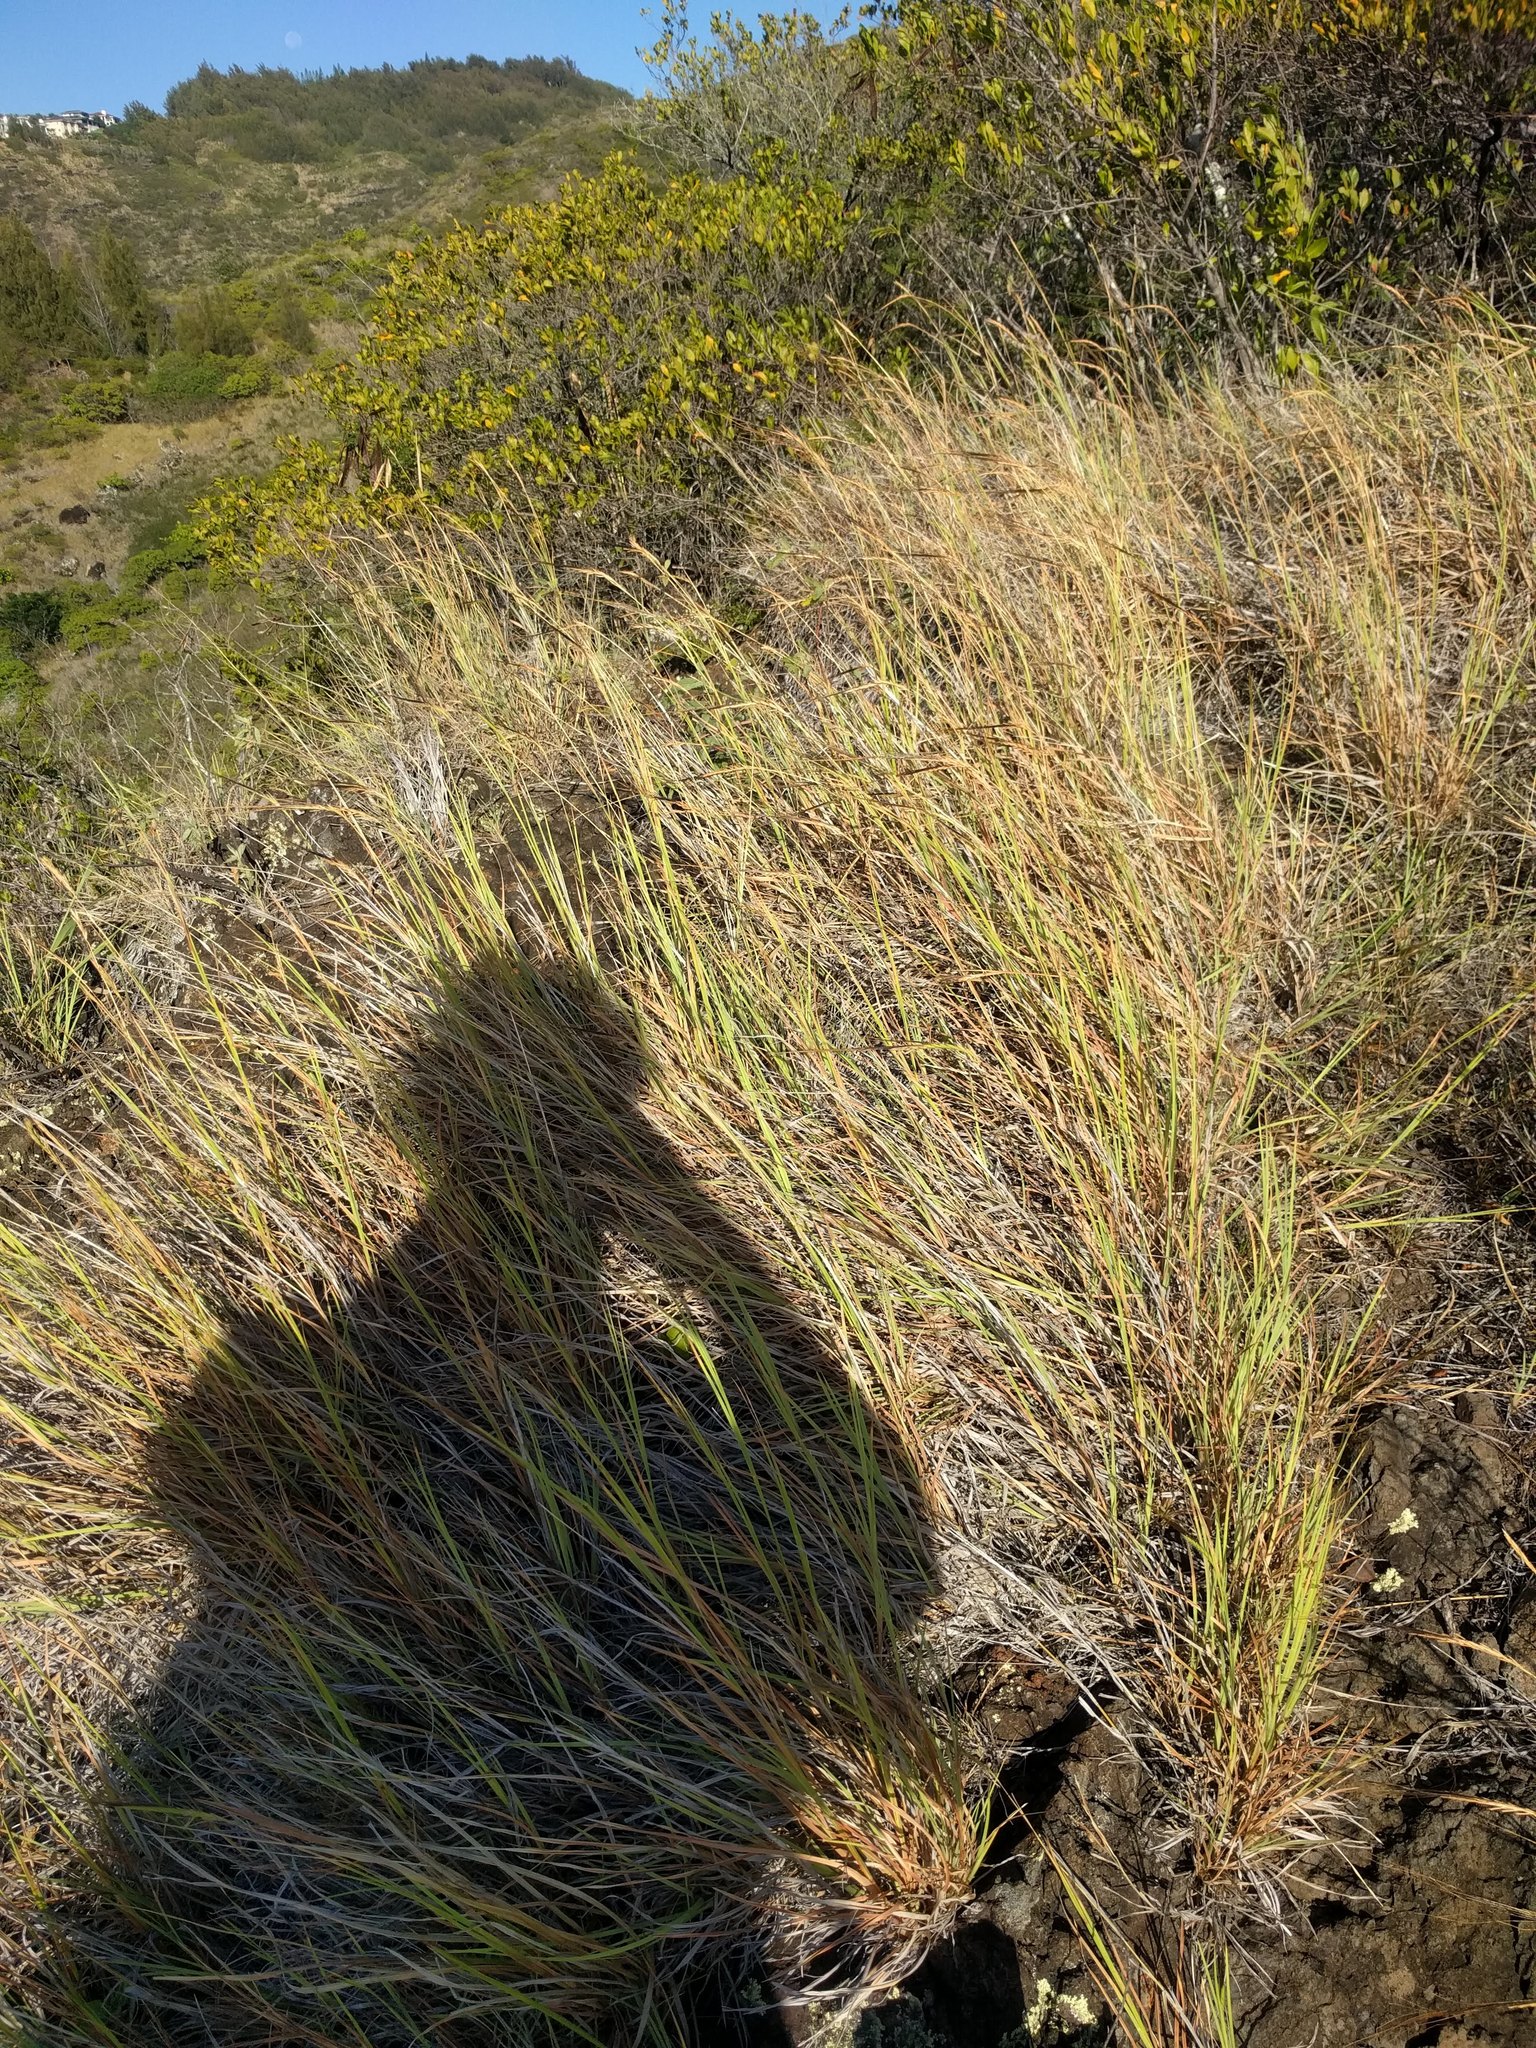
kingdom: Plantae
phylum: Tracheophyta
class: Liliopsida
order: Poales
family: Poaceae
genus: Heteropogon
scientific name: Heteropogon contortus
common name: Tanglehead
